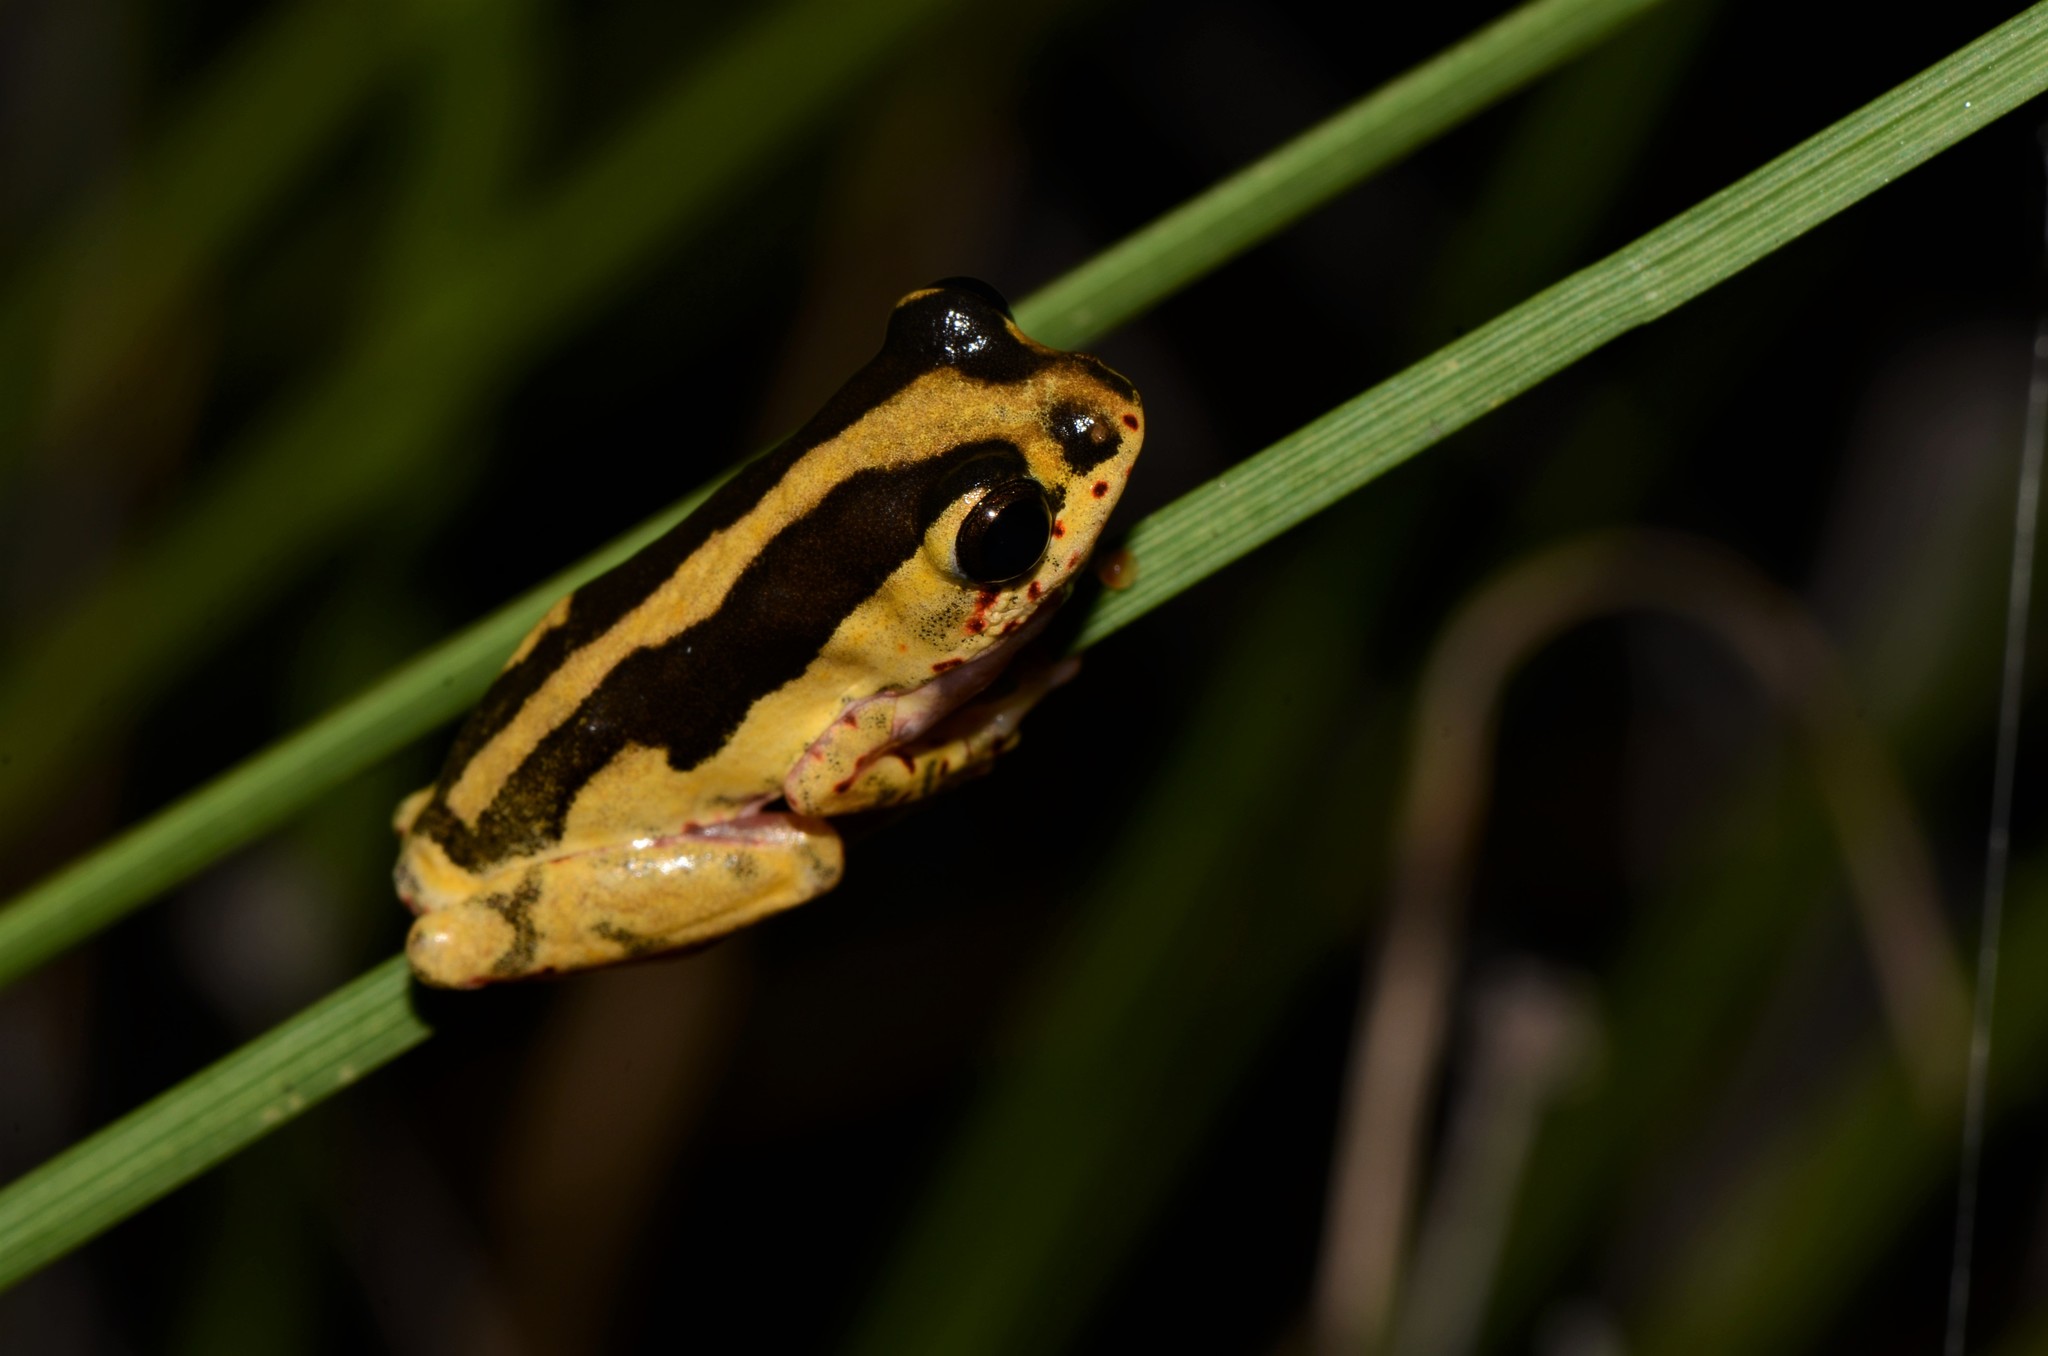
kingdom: Animalia
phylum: Chordata
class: Amphibia
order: Anura
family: Hyperoliidae
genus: Hyperolius
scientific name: Hyperolius marmoratus
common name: Painted reed frog
